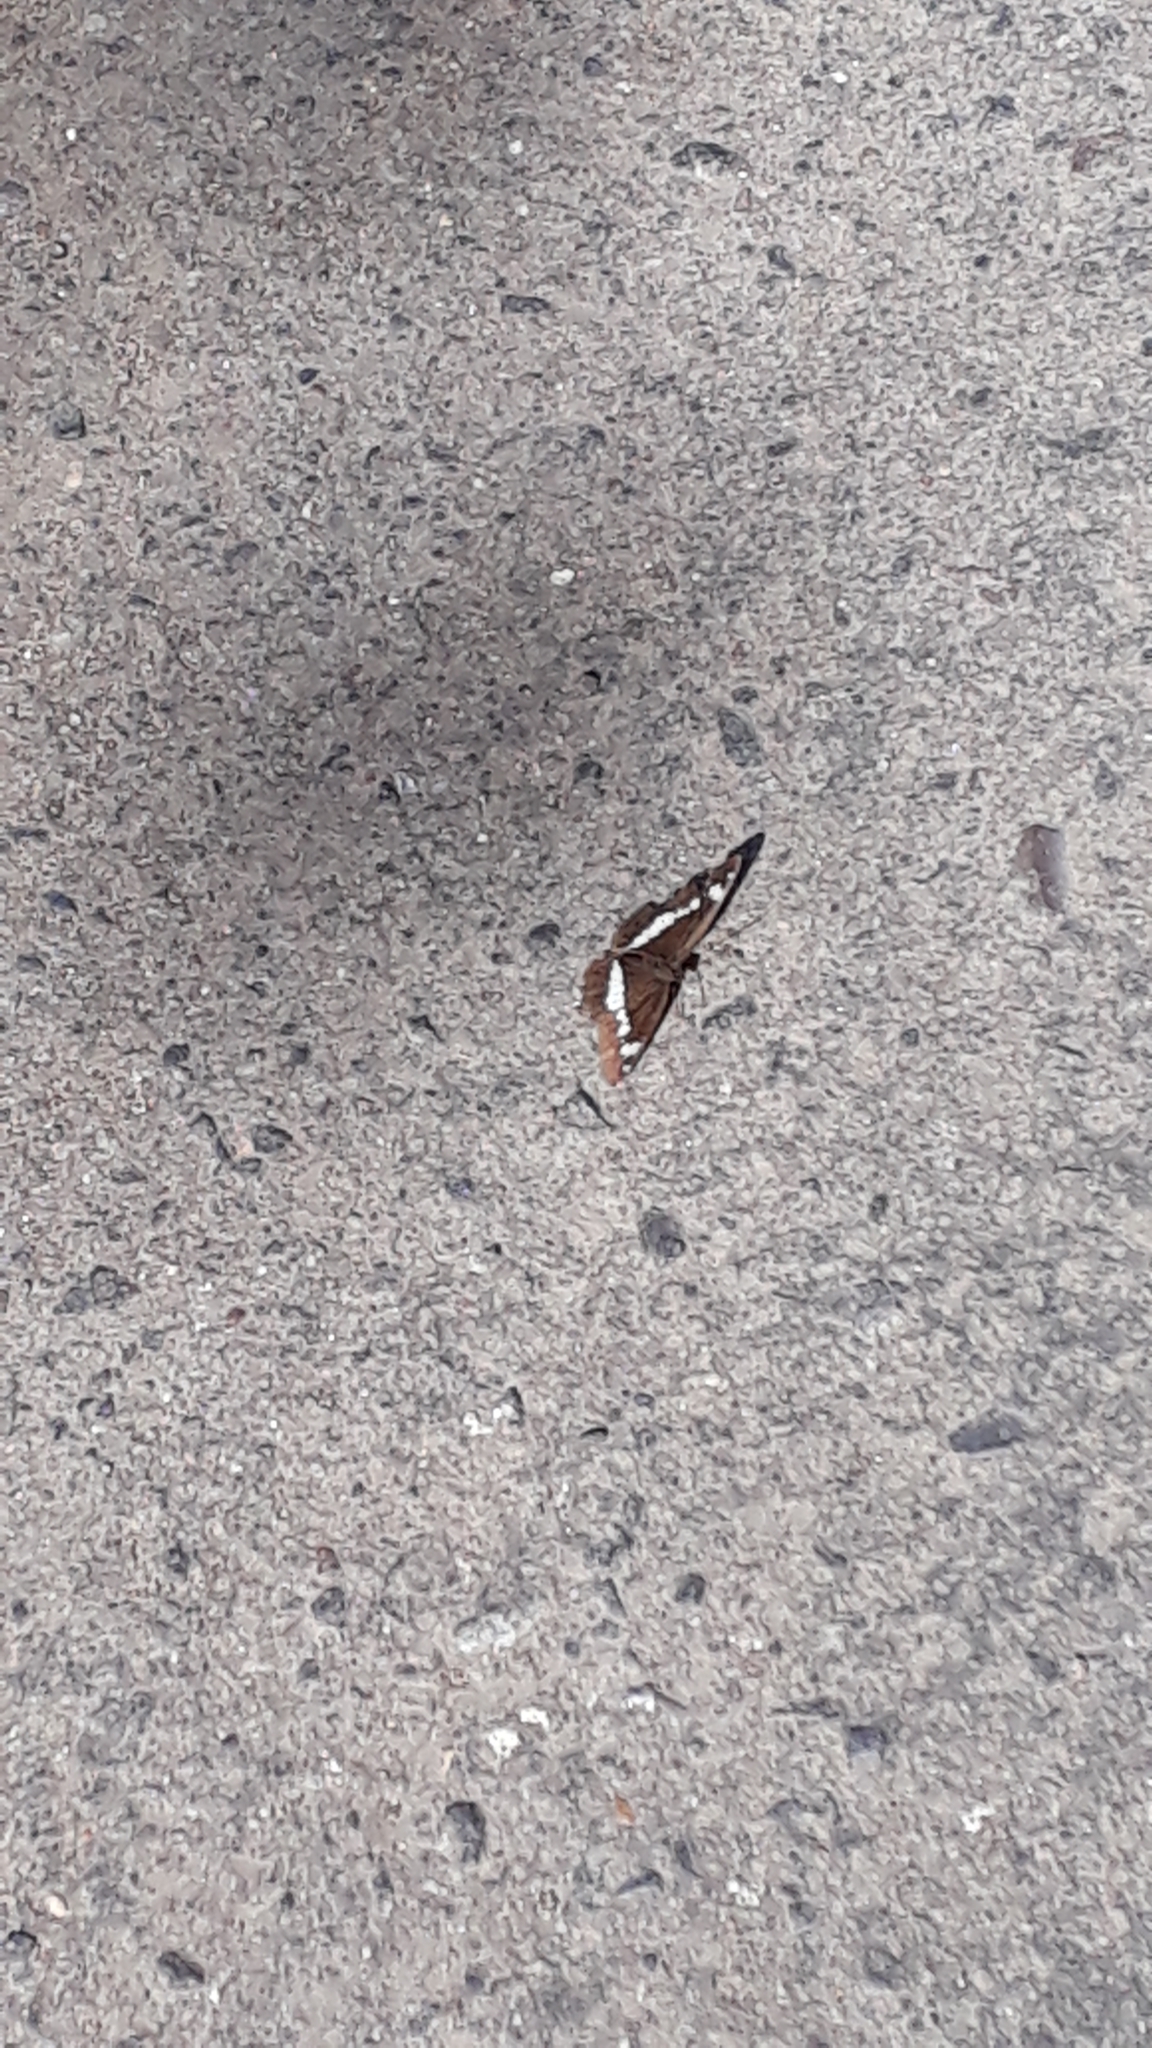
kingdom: Animalia
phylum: Arthropoda
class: Insecta
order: Lepidoptera
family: Nymphalidae
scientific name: Nymphalidae
